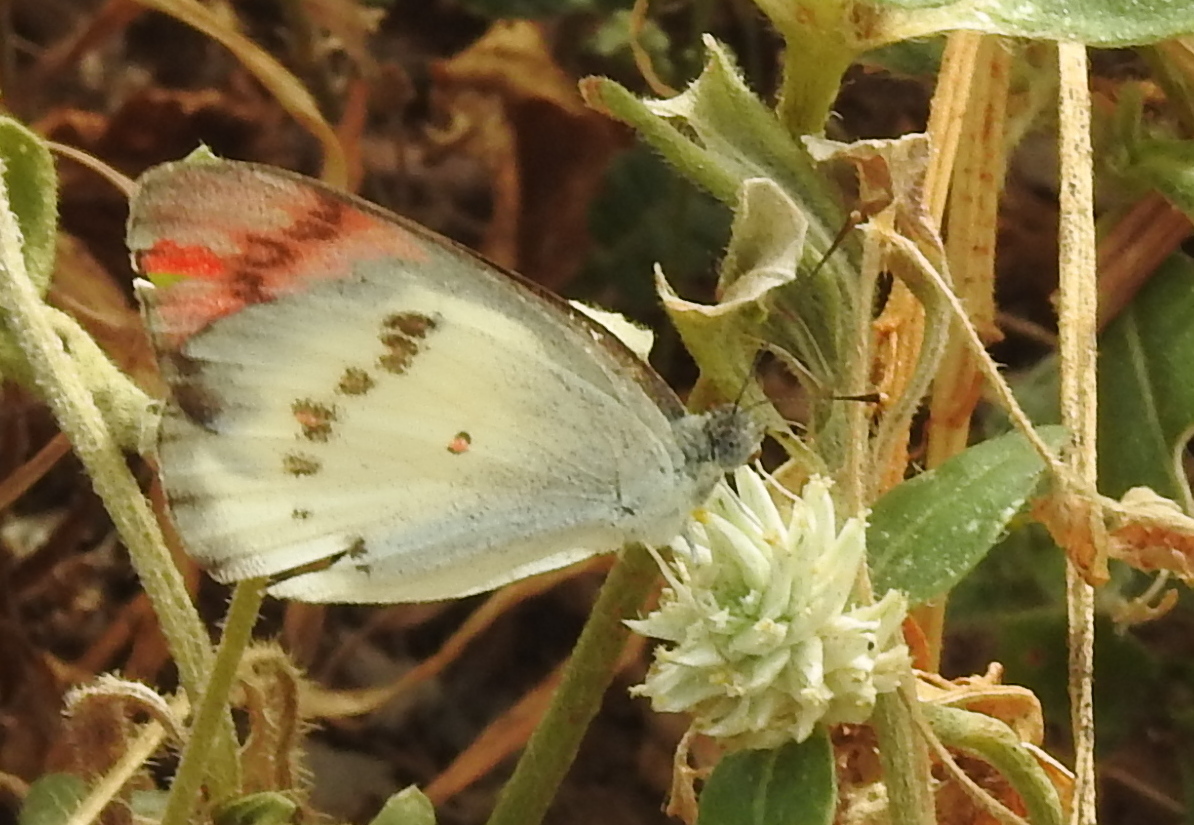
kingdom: Animalia
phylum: Arthropoda
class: Insecta
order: Lepidoptera
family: Pieridae
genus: Colotis
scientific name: Colotis danae
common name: Crimson tip
